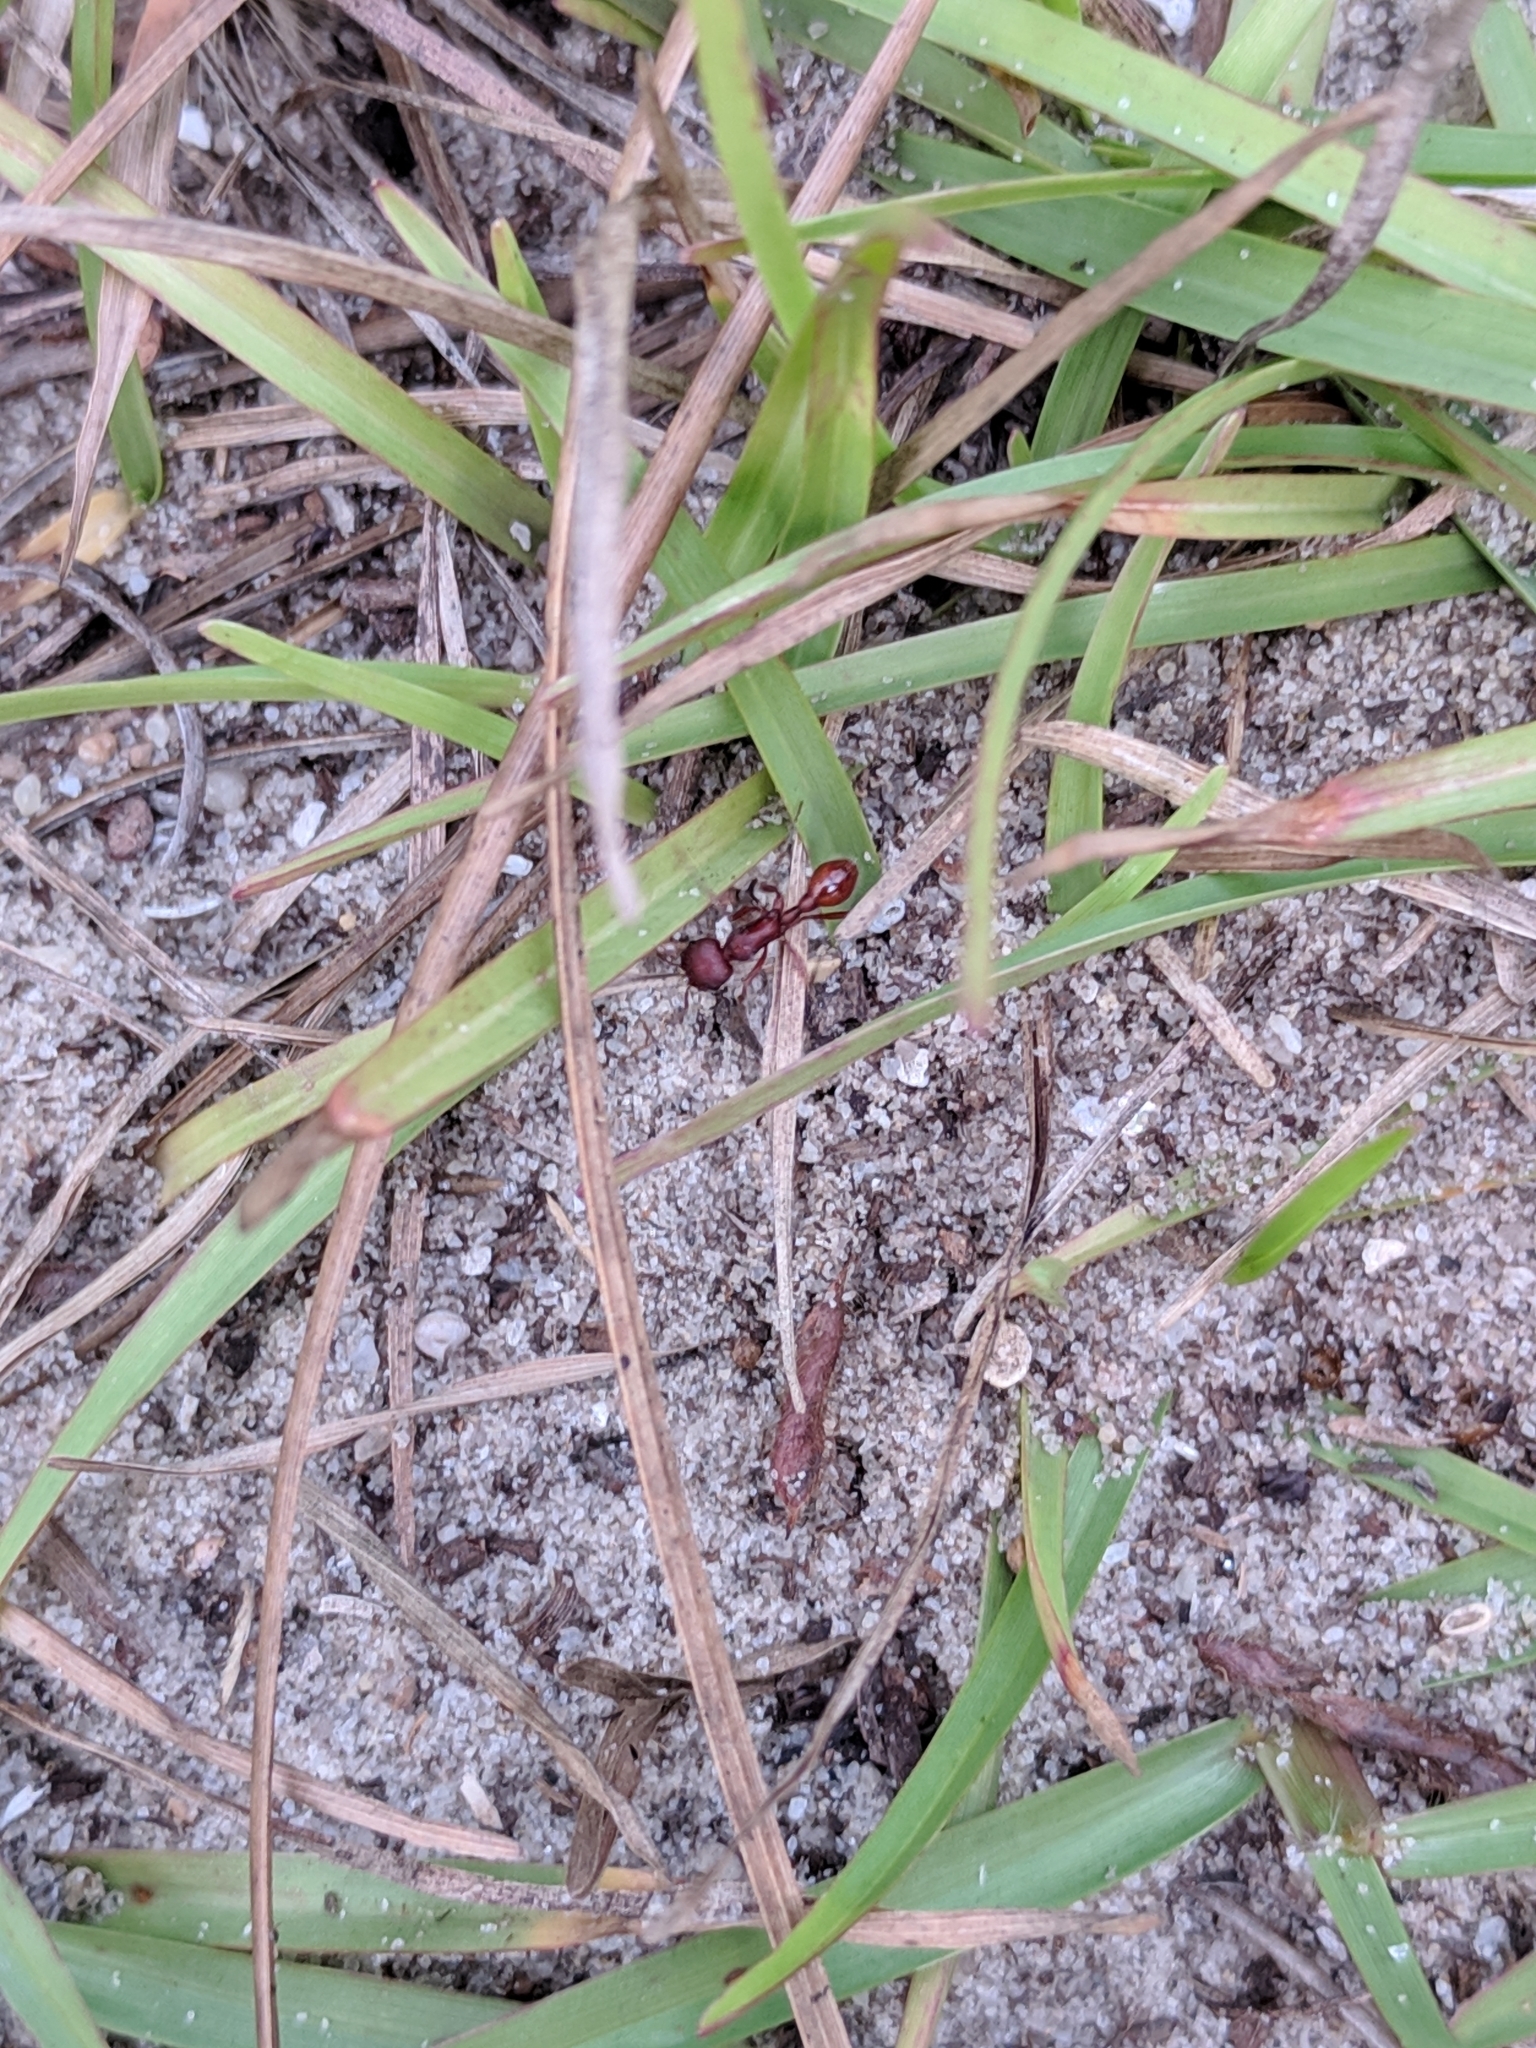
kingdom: Animalia
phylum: Arthropoda
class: Insecta
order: Hymenoptera
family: Formicidae
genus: Pogonomyrmex
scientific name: Pogonomyrmex badius
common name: Florida harvester ant
